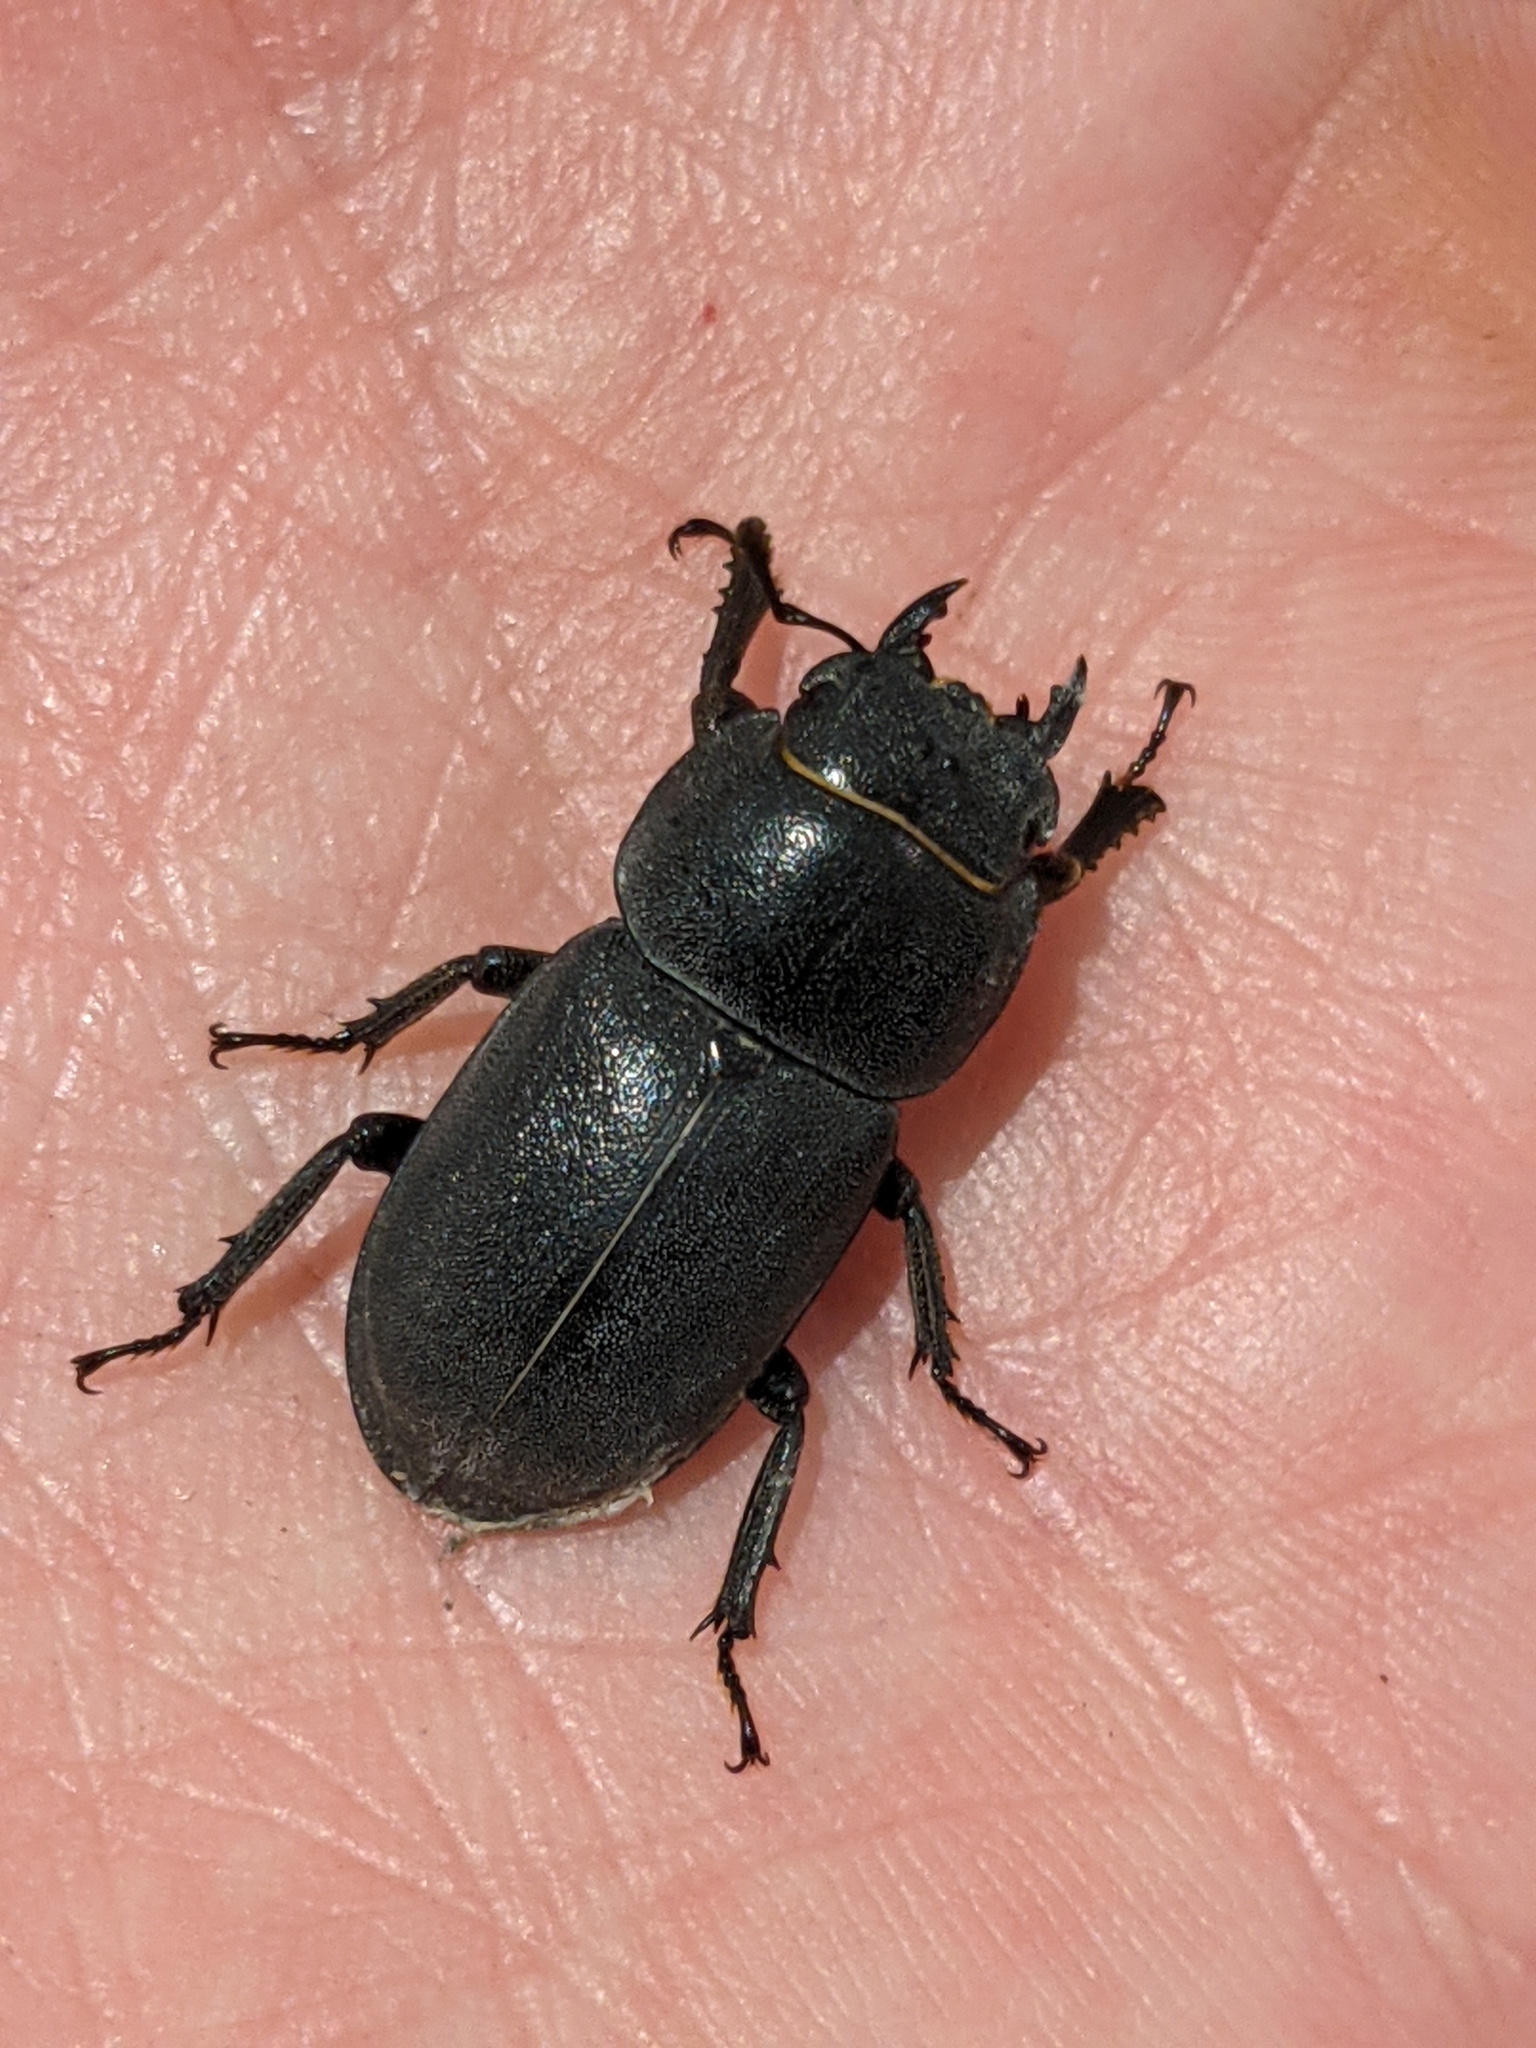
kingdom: Animalia
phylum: Arthropoda
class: Insecta
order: Coleoptera
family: Lucanidae
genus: Dorcus
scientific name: Dorcus parallelipipedus
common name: Lesser stag beetle
